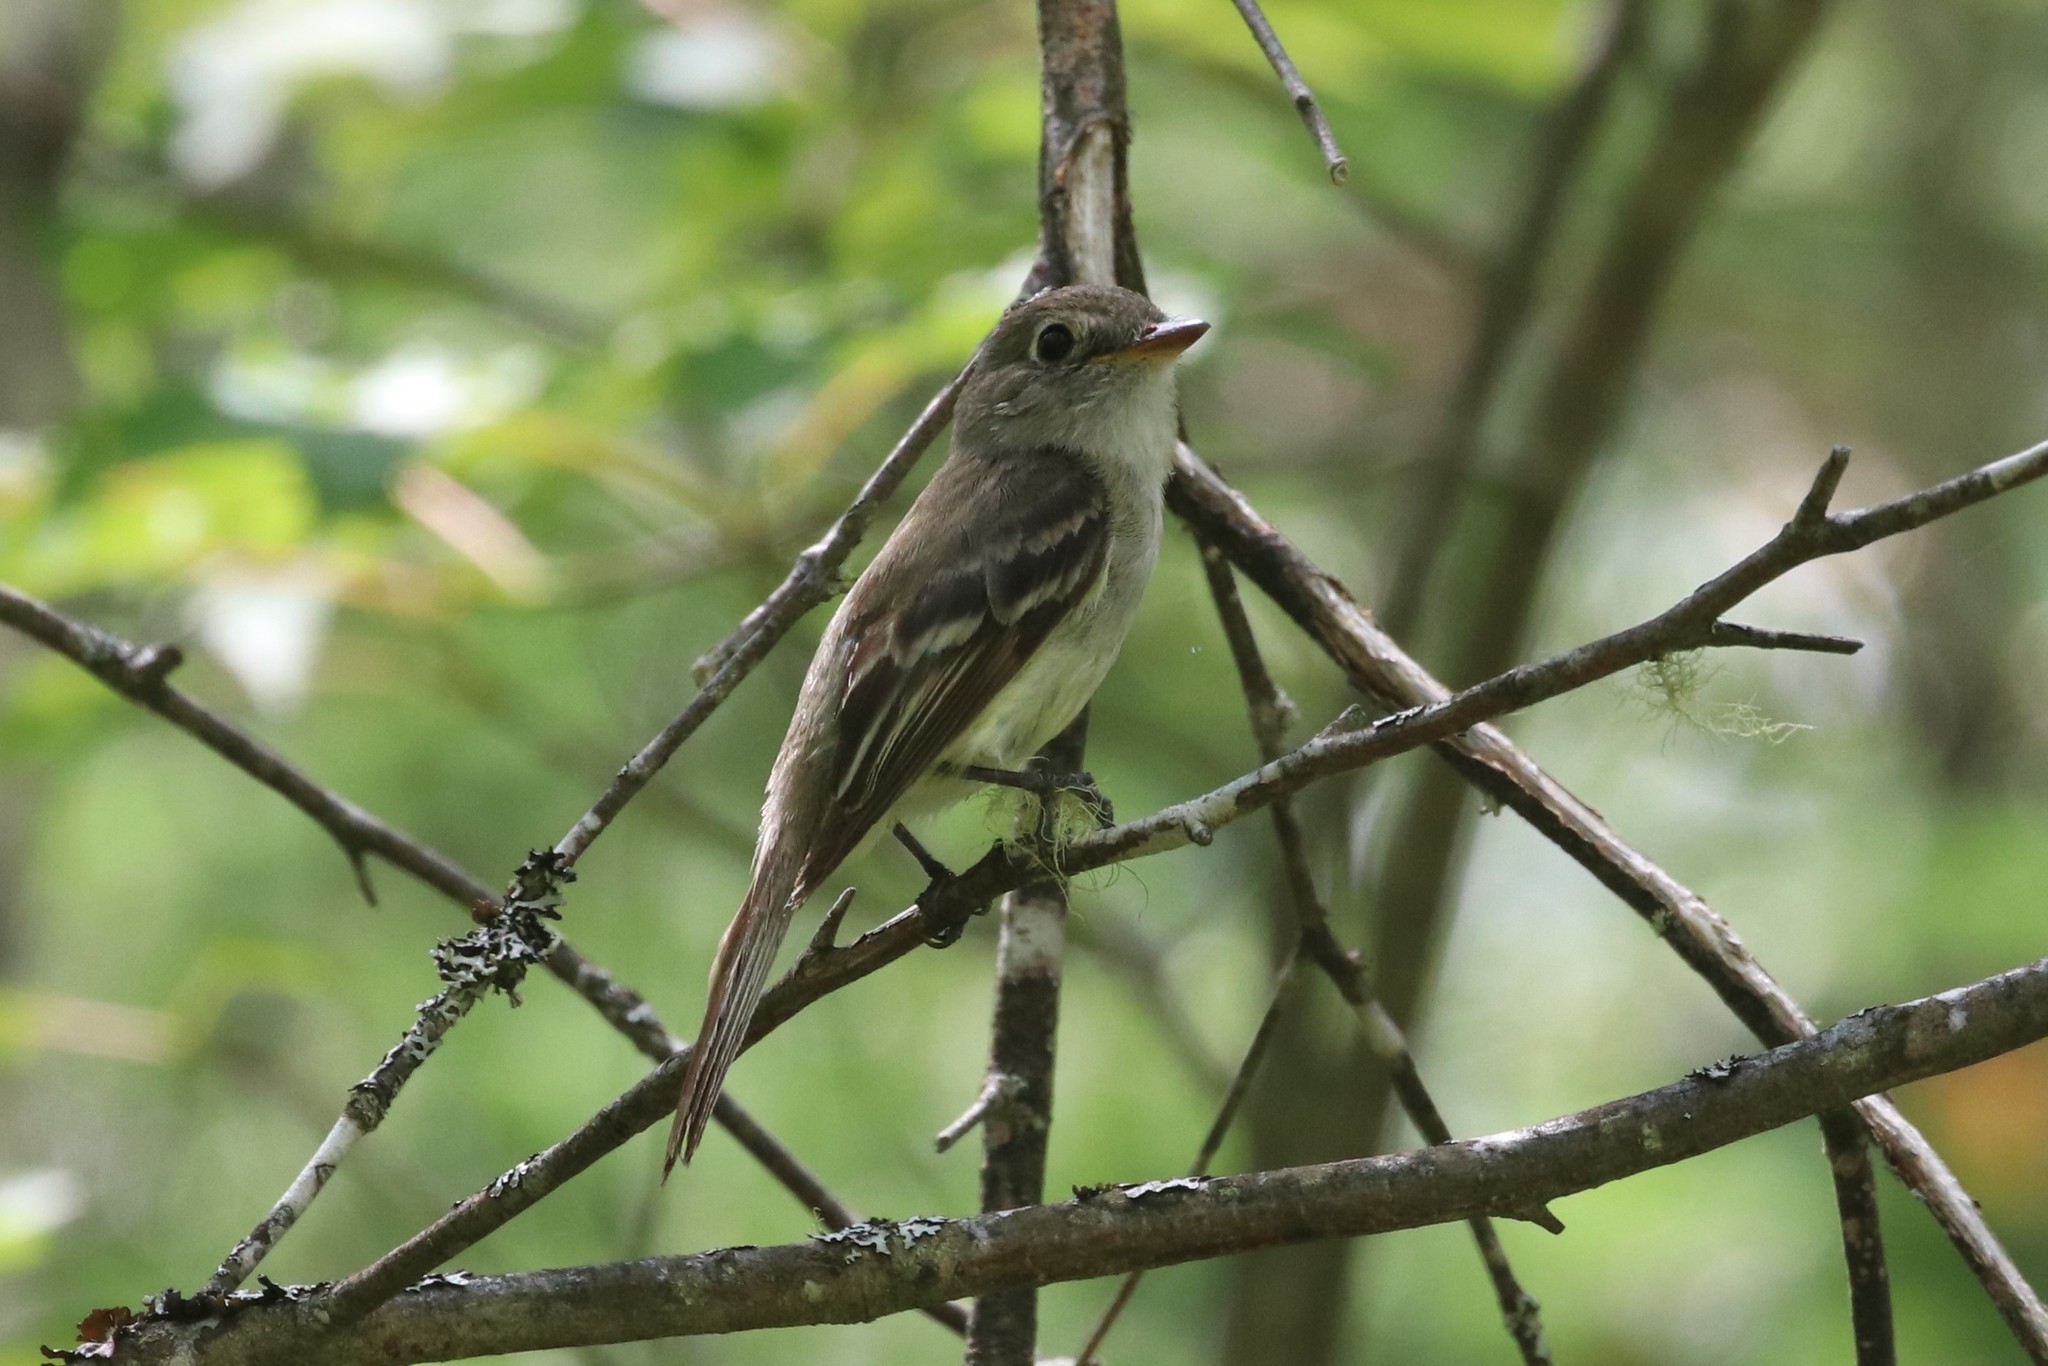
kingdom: Animalia
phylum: Chordata
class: Aves
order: Passeriformes
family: Tyrannidae
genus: Empidonax
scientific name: Empidonax minimus
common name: Least flycatcher
